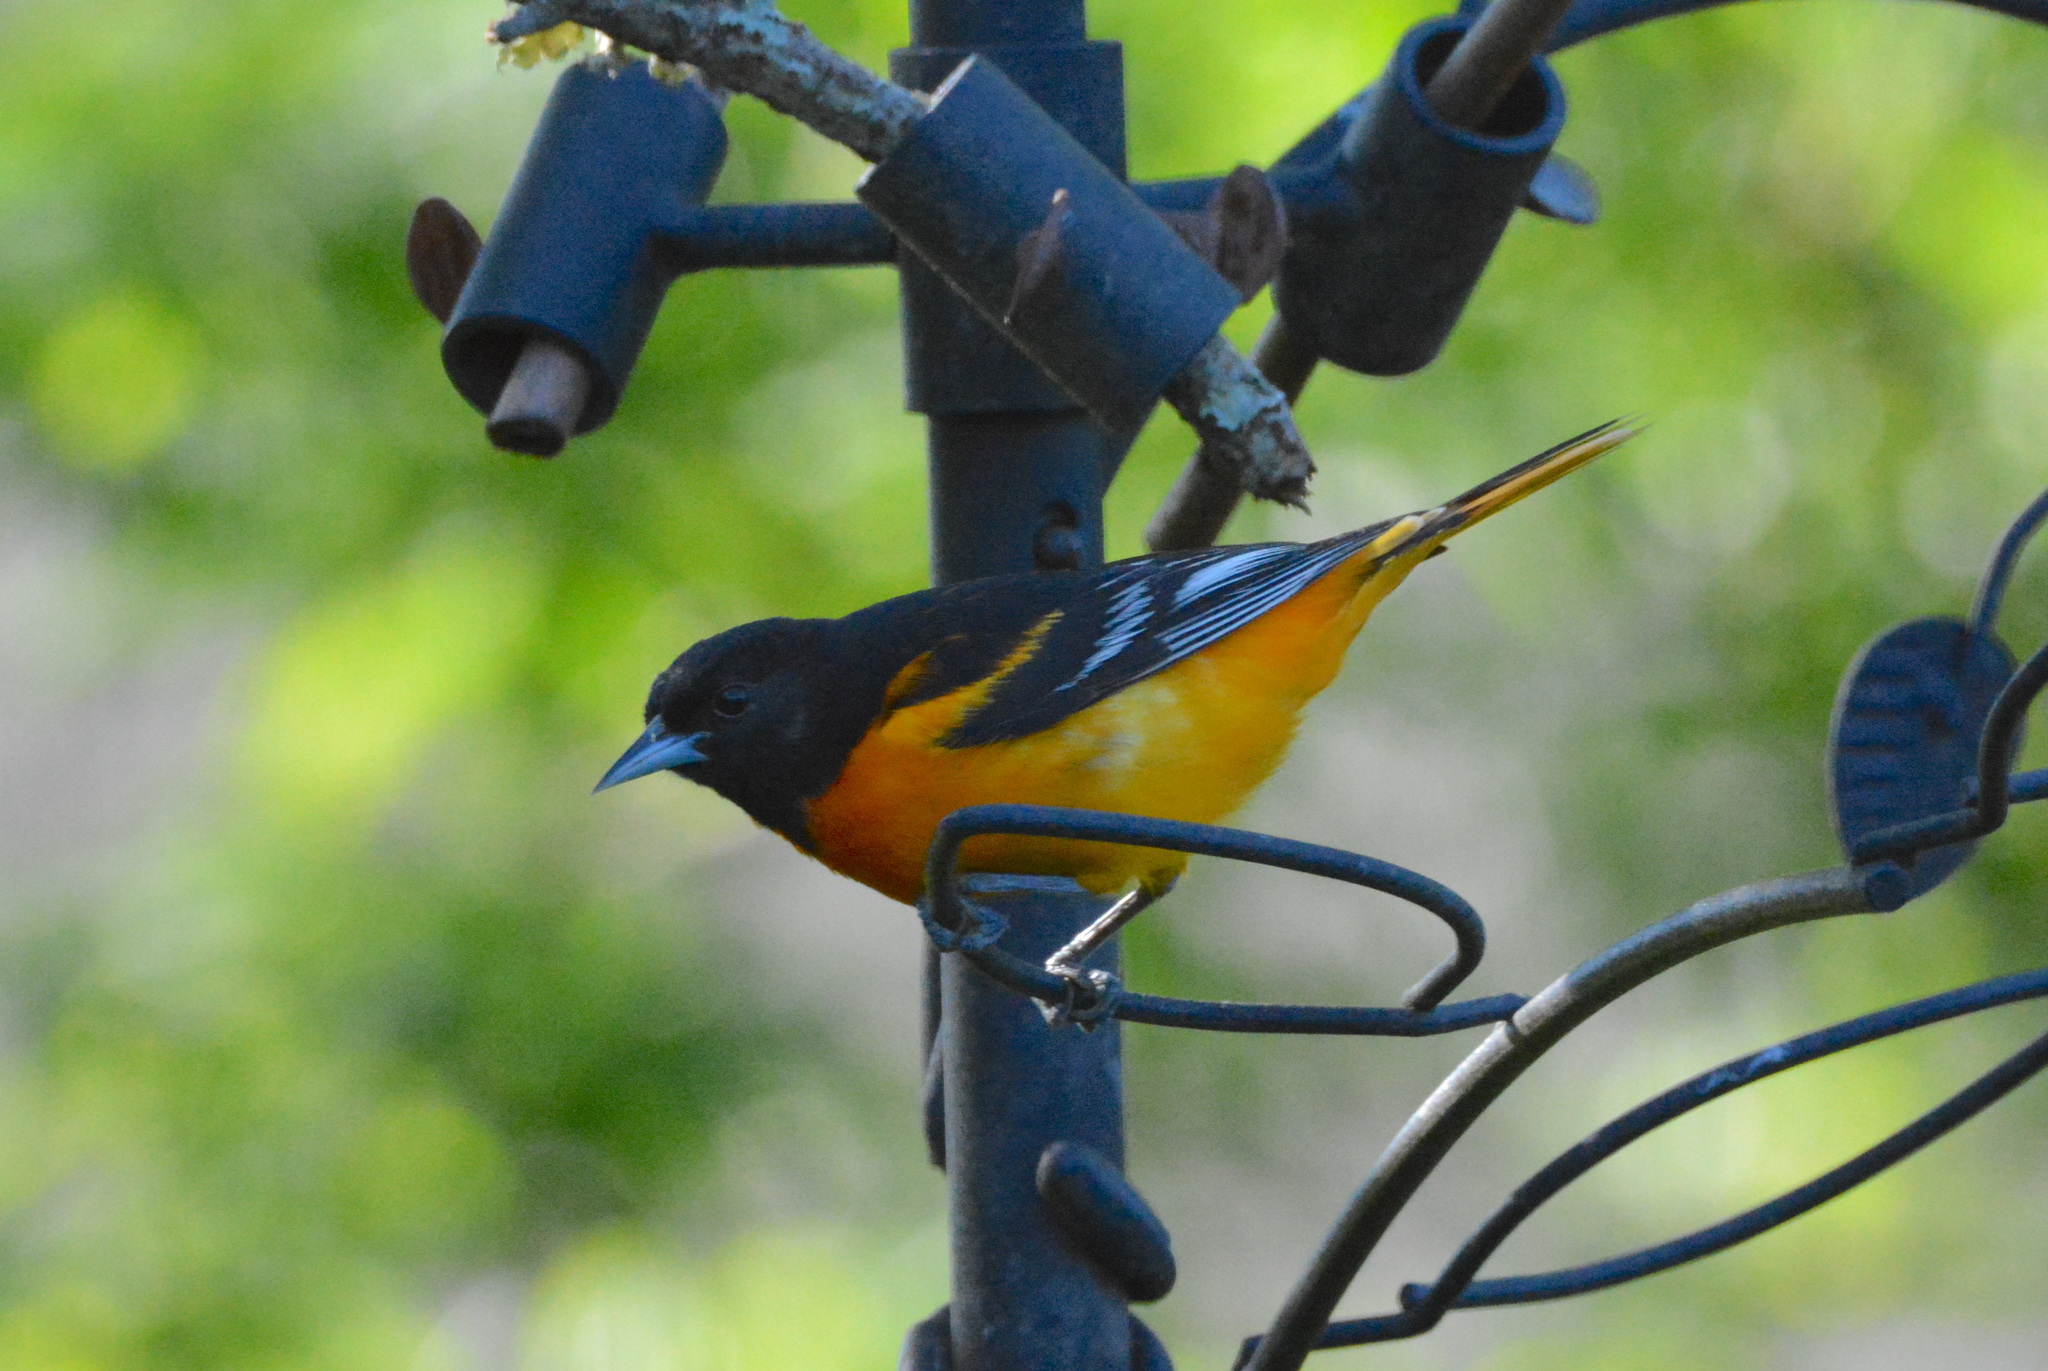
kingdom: Animalia
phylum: Chordata
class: Aves
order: Passeriformes
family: Icteridae
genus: Icterus
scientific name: Icterus galbula
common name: Baltimore oriole
